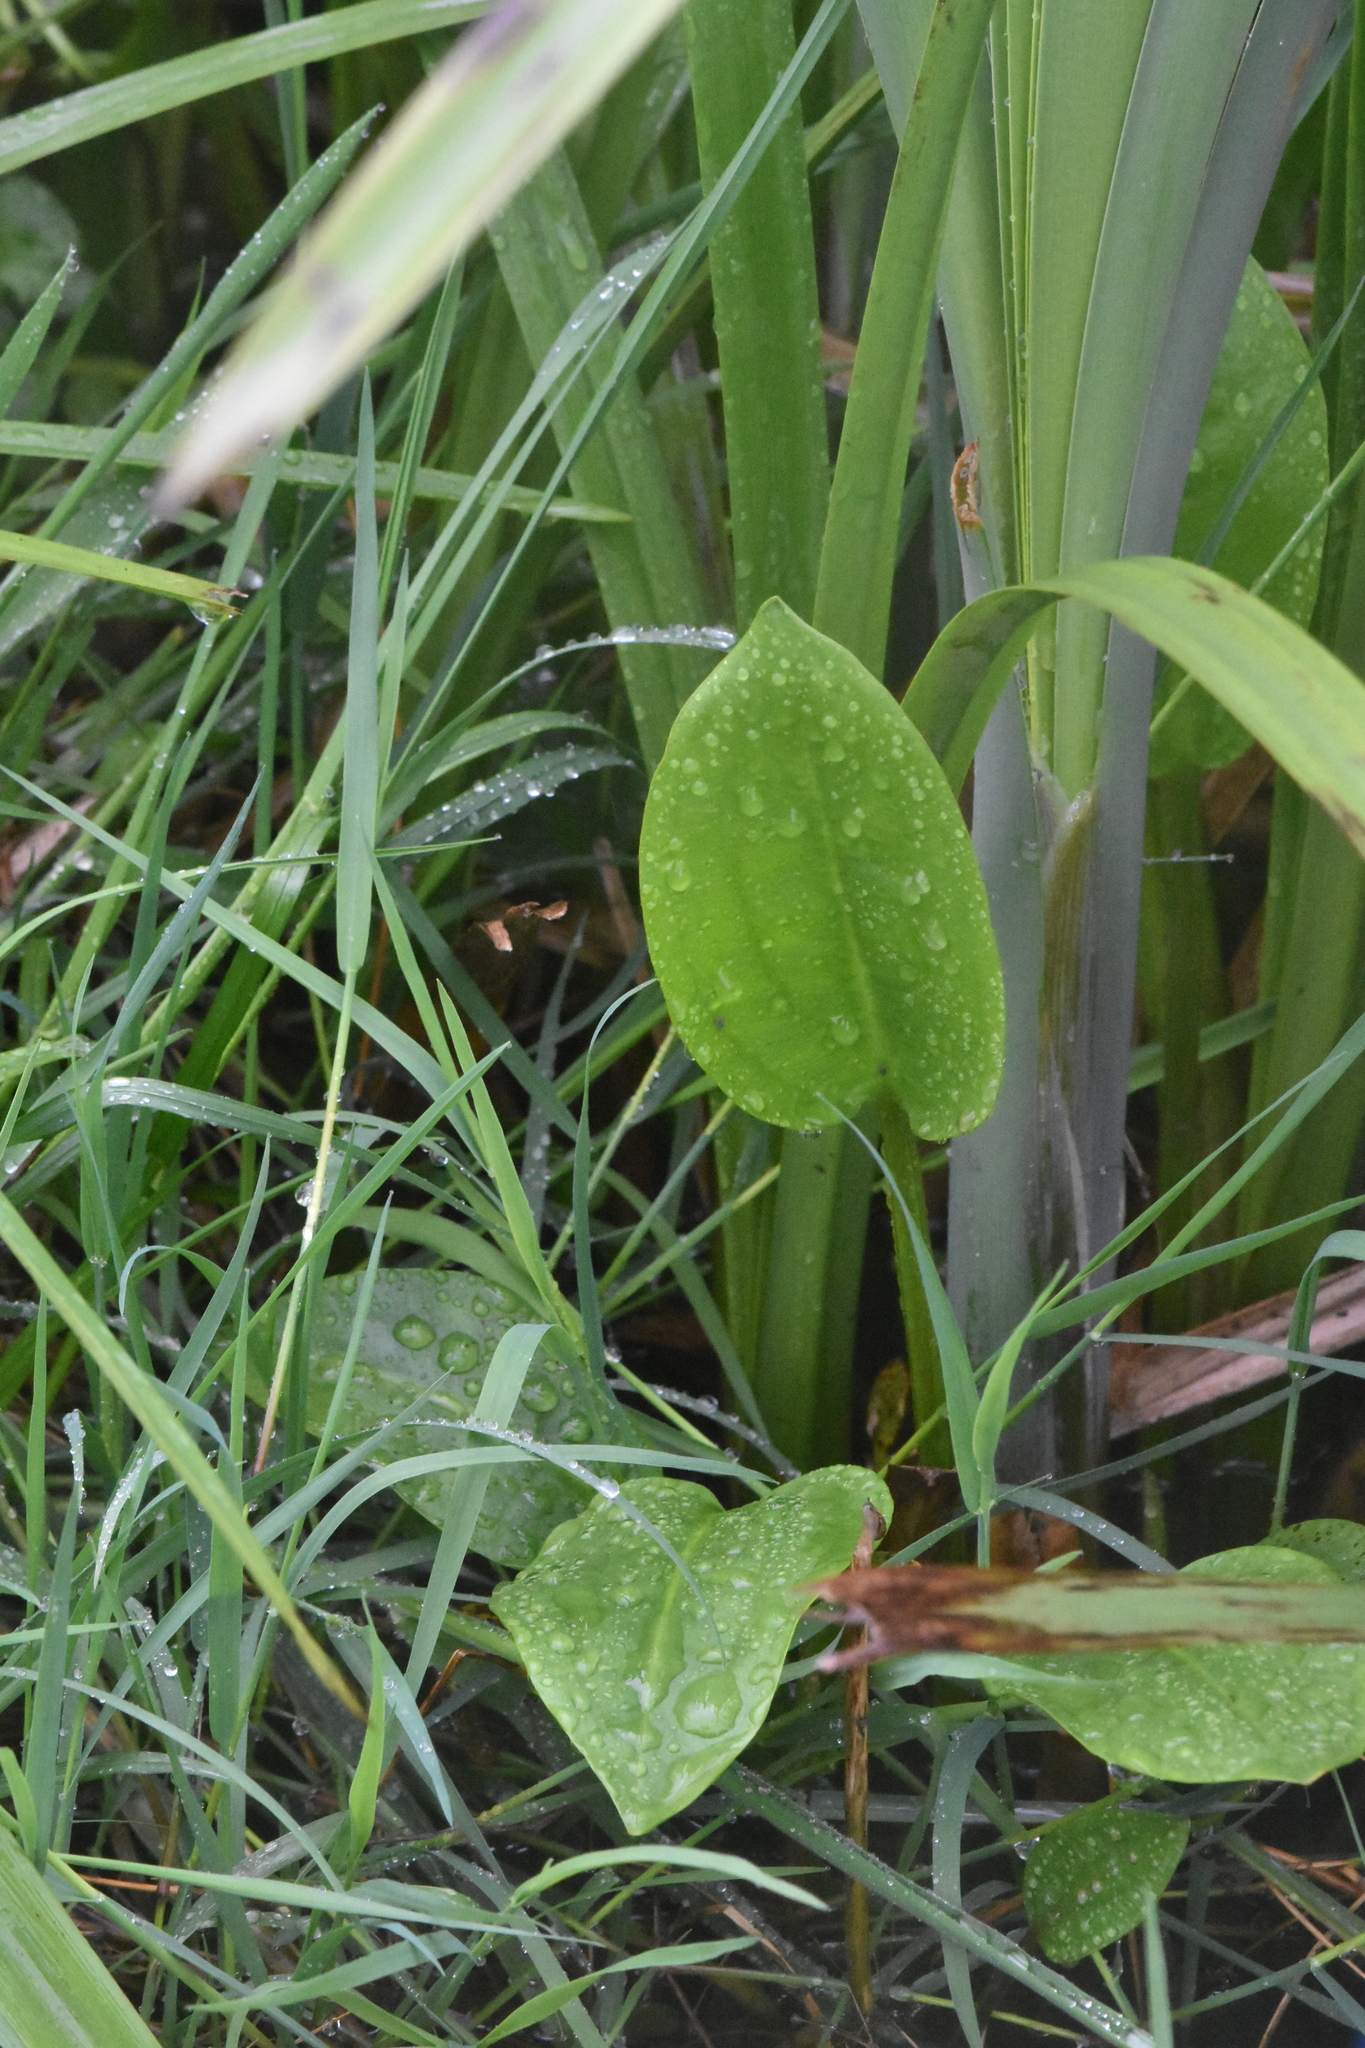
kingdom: Plantae
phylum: Tracheophyta
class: Liliopsida
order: Alismatales
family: Alismataceae
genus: Alisma
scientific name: Alisma plantago-aquatica
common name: Water-plantain
